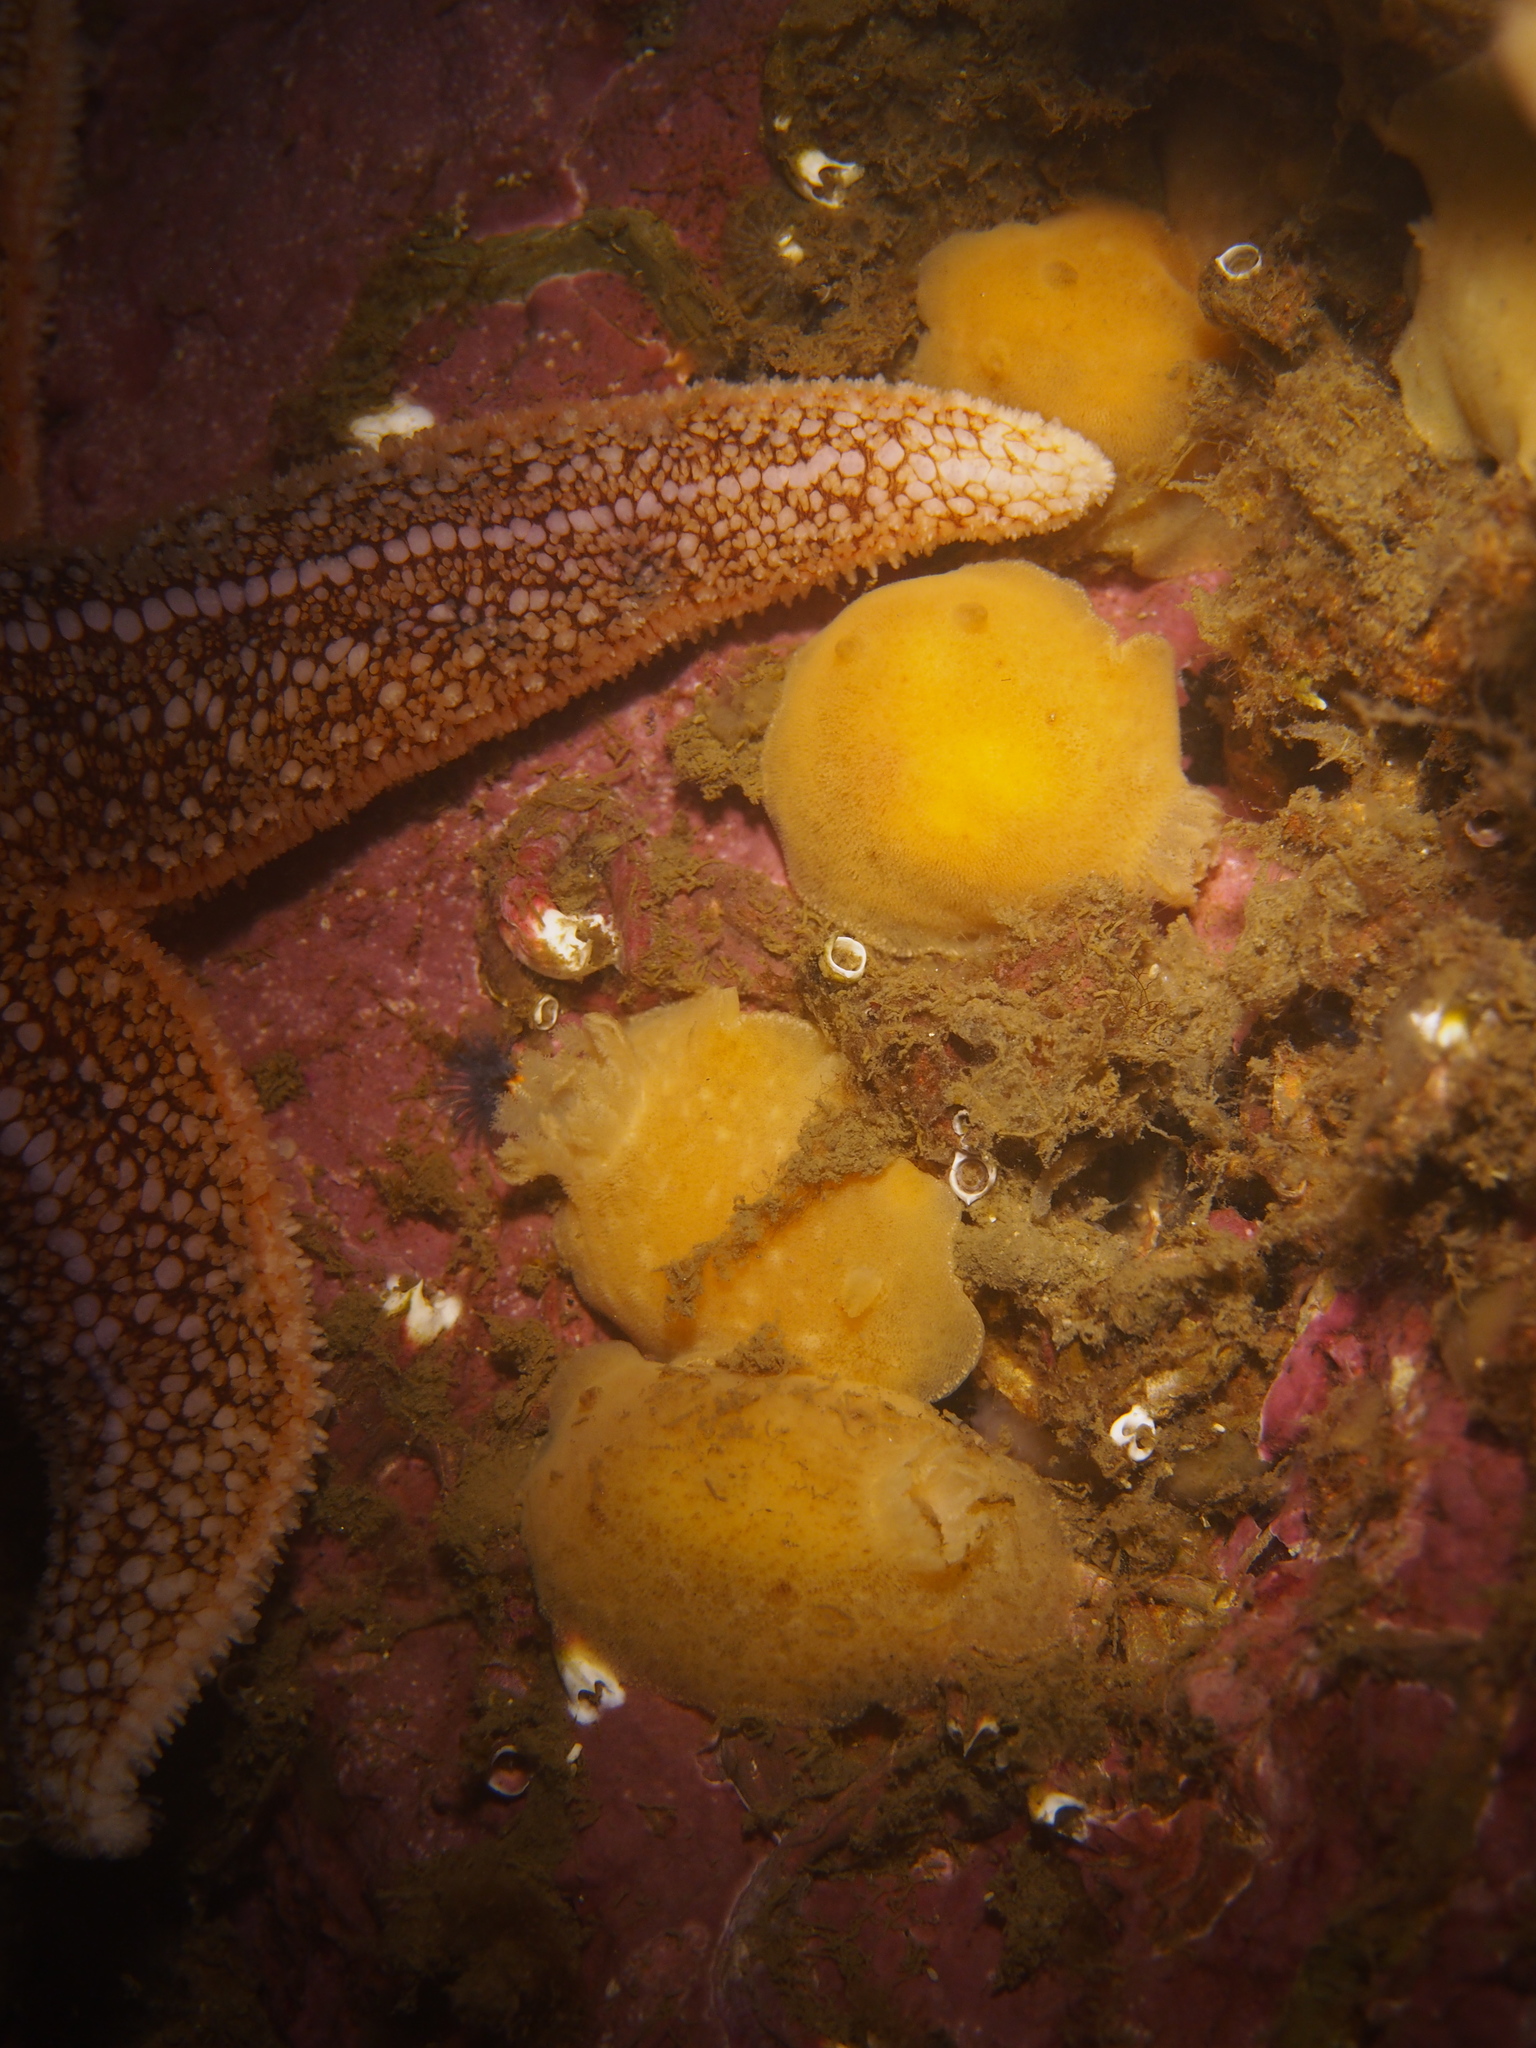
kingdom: Animalia
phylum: Mollusca
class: Gastropoda
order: Nudibranchia
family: Discodorididae
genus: Jorunna
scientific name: Jorunna tomentosa
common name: Grey sea slug
